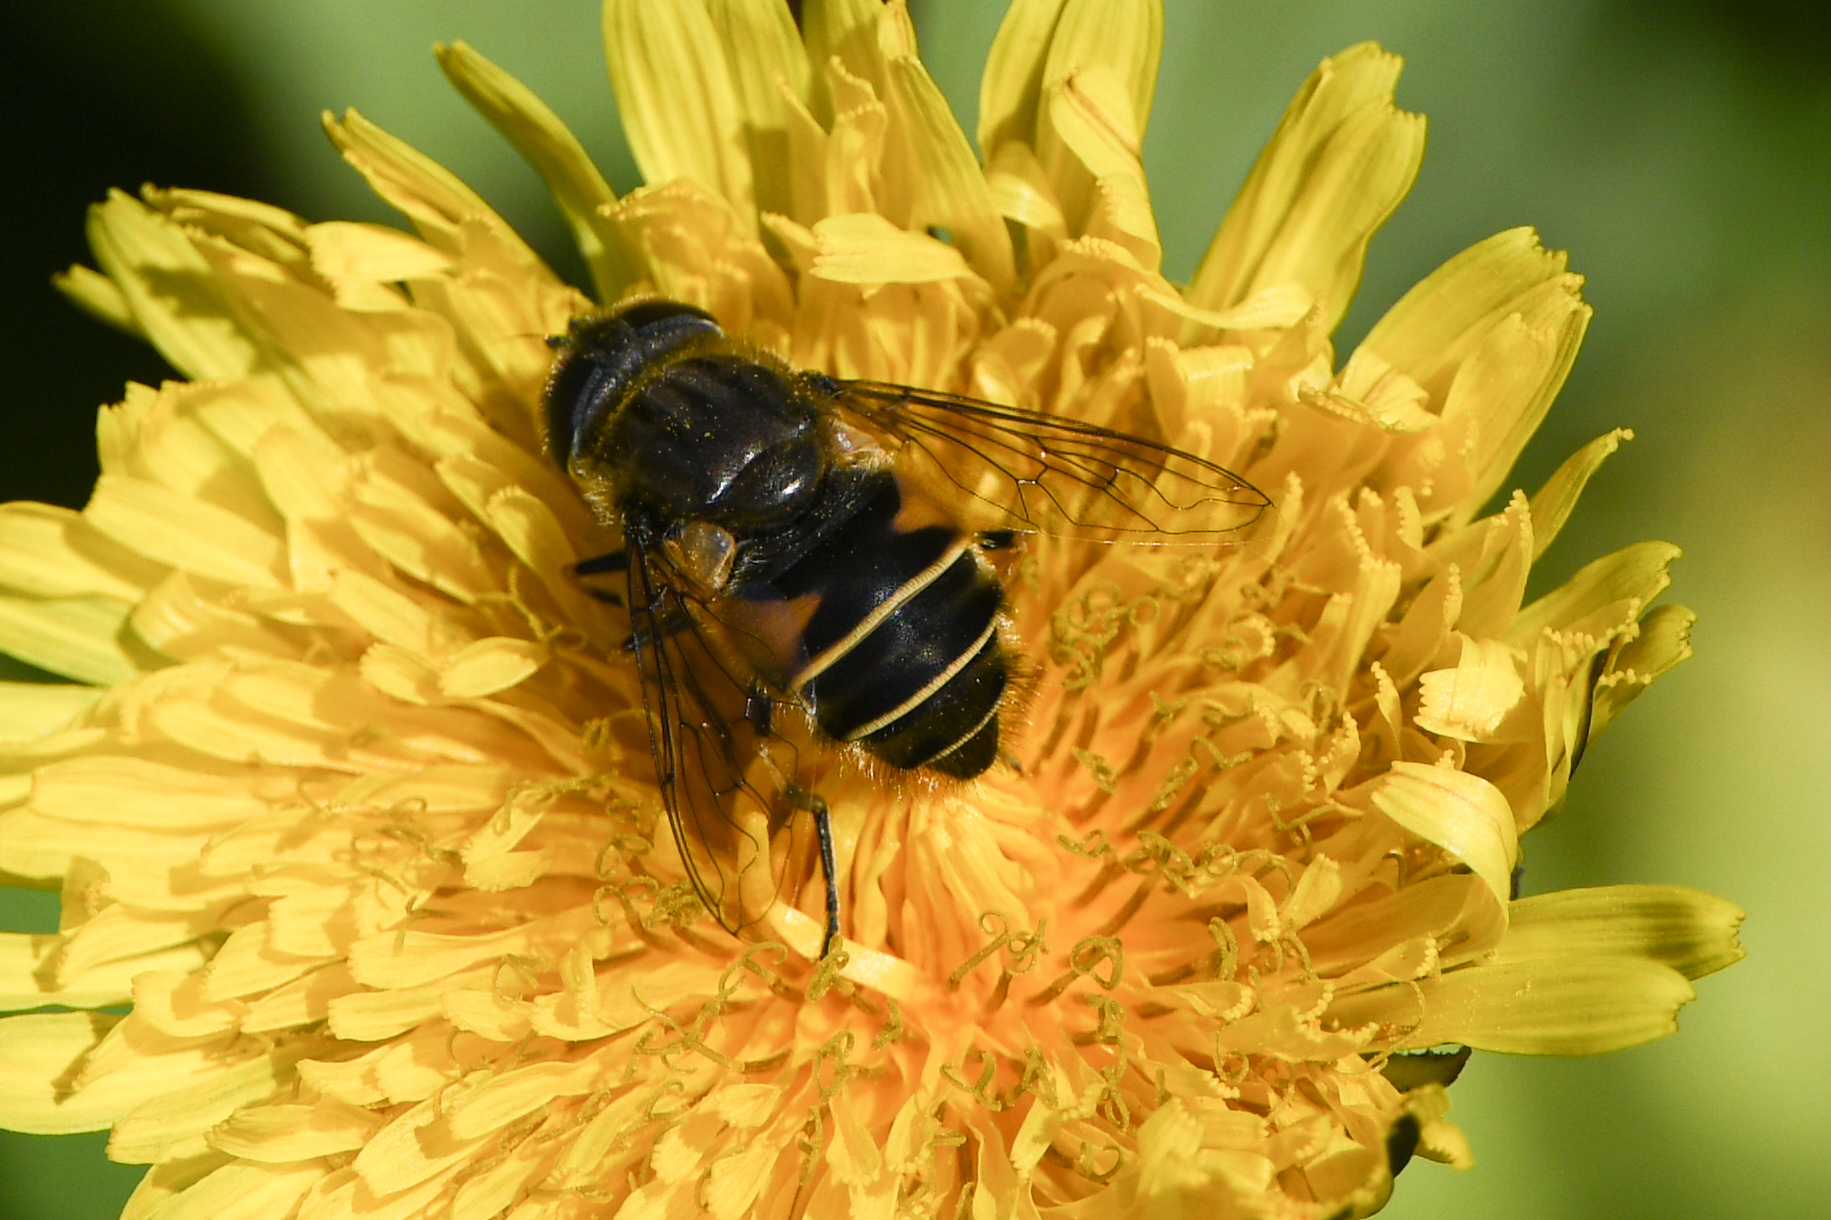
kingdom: Animalia
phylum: Arthropoda
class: Insecta
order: Diptera
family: Syrphidae
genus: Eristalis
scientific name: Eristalis croceimaculata
